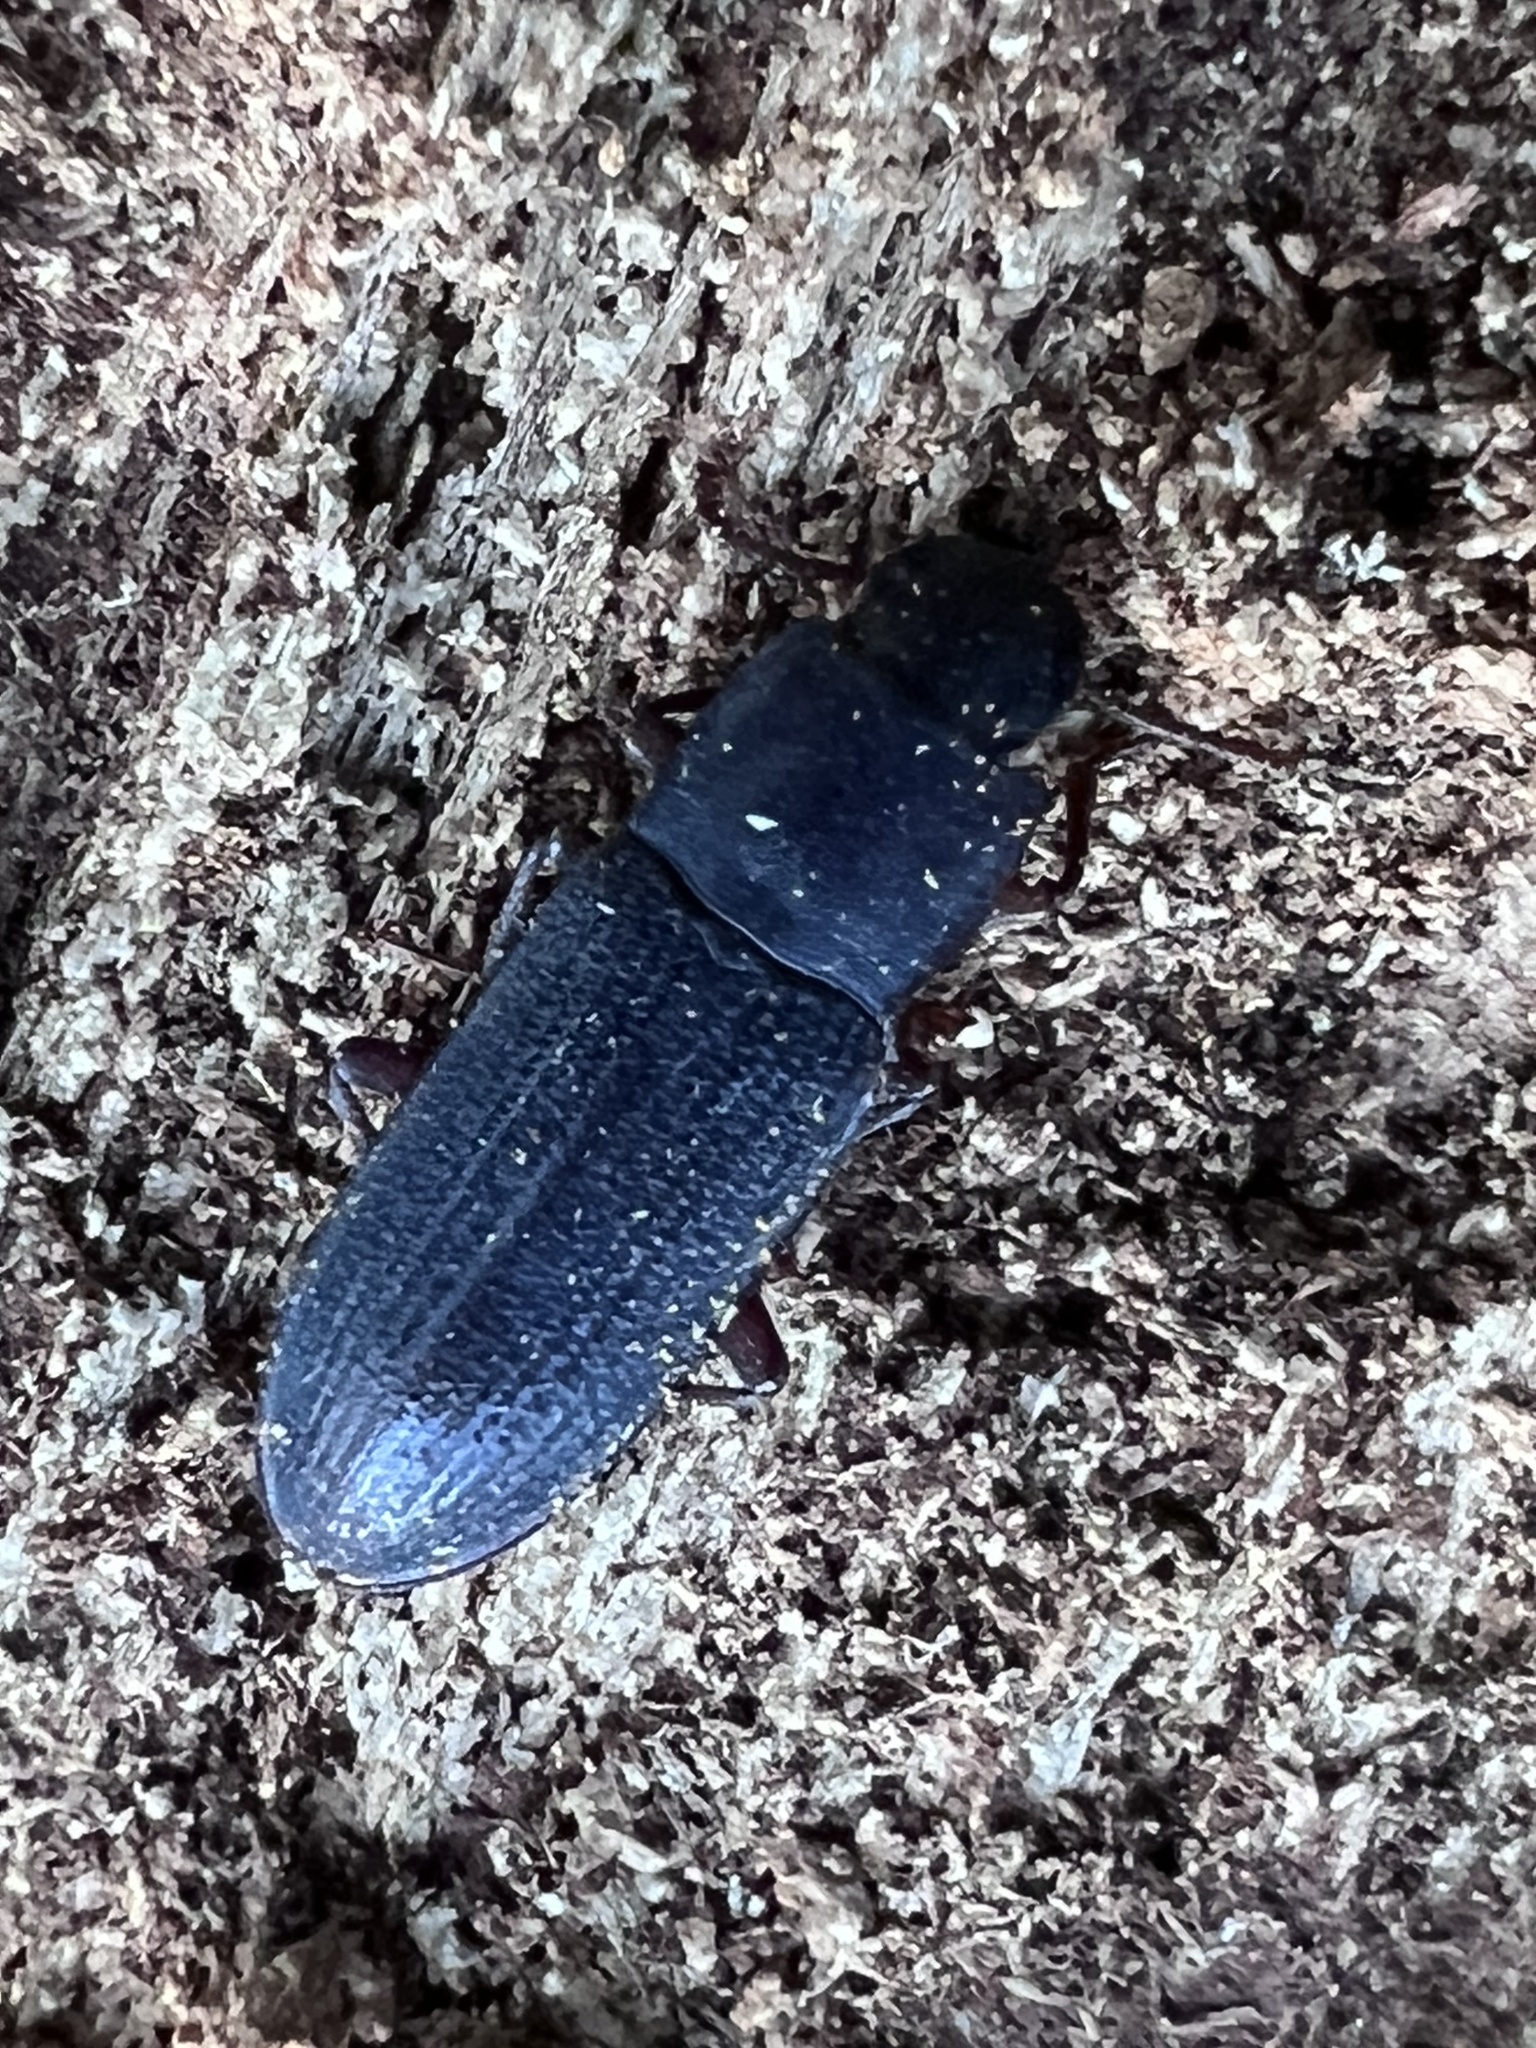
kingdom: Animalia
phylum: Arthropoda
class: Insecta
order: Coleoptera
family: Tenebrionidae
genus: Idiobates
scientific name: Idiobates castaneus
